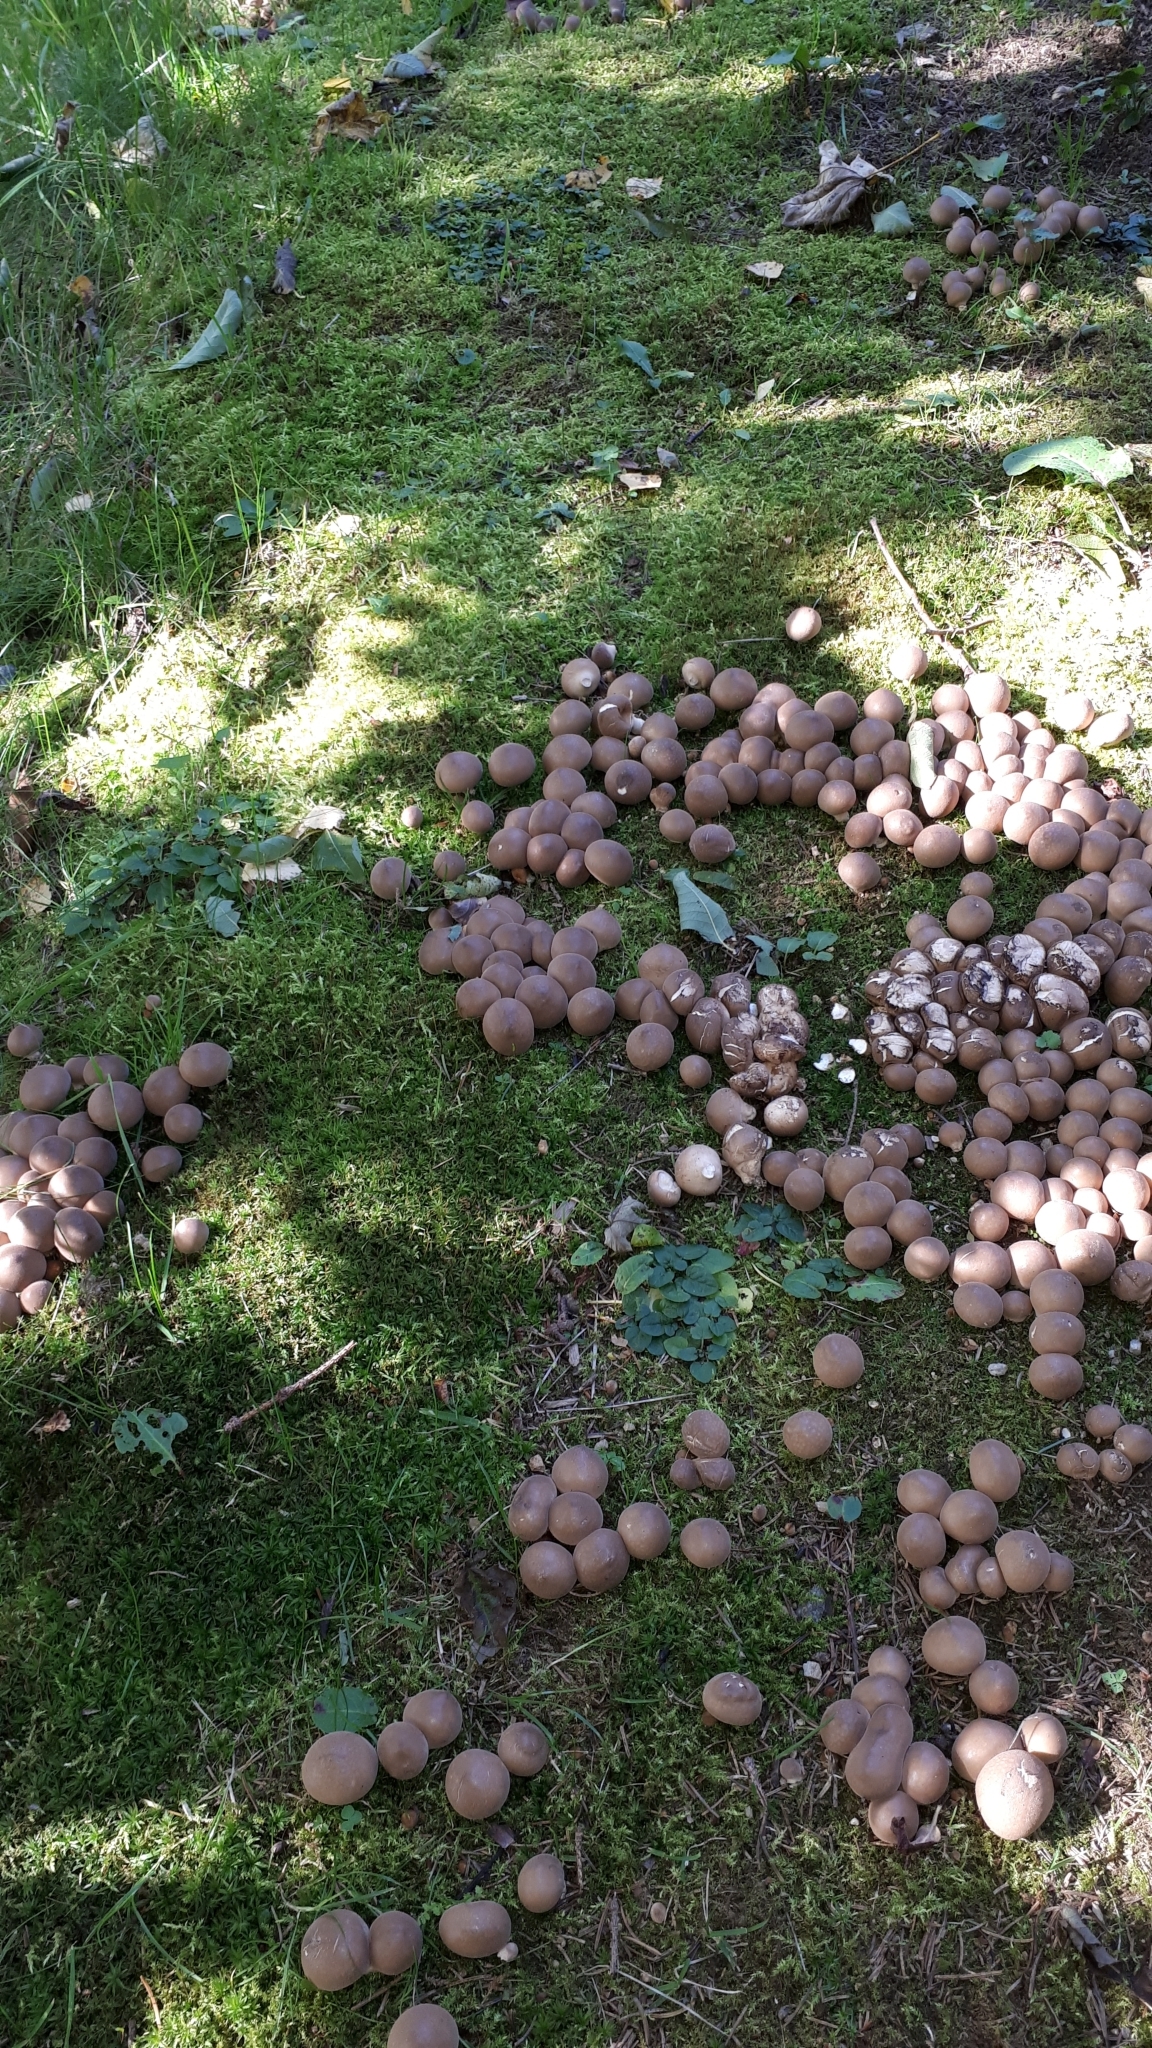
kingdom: Fungi
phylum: Basidiomycota
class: Agaricomycetes
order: Agaricales
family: Lycoperdaceae
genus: Apioperdon
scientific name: Apioperdon pyriforme
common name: Pear-shaped puffball
